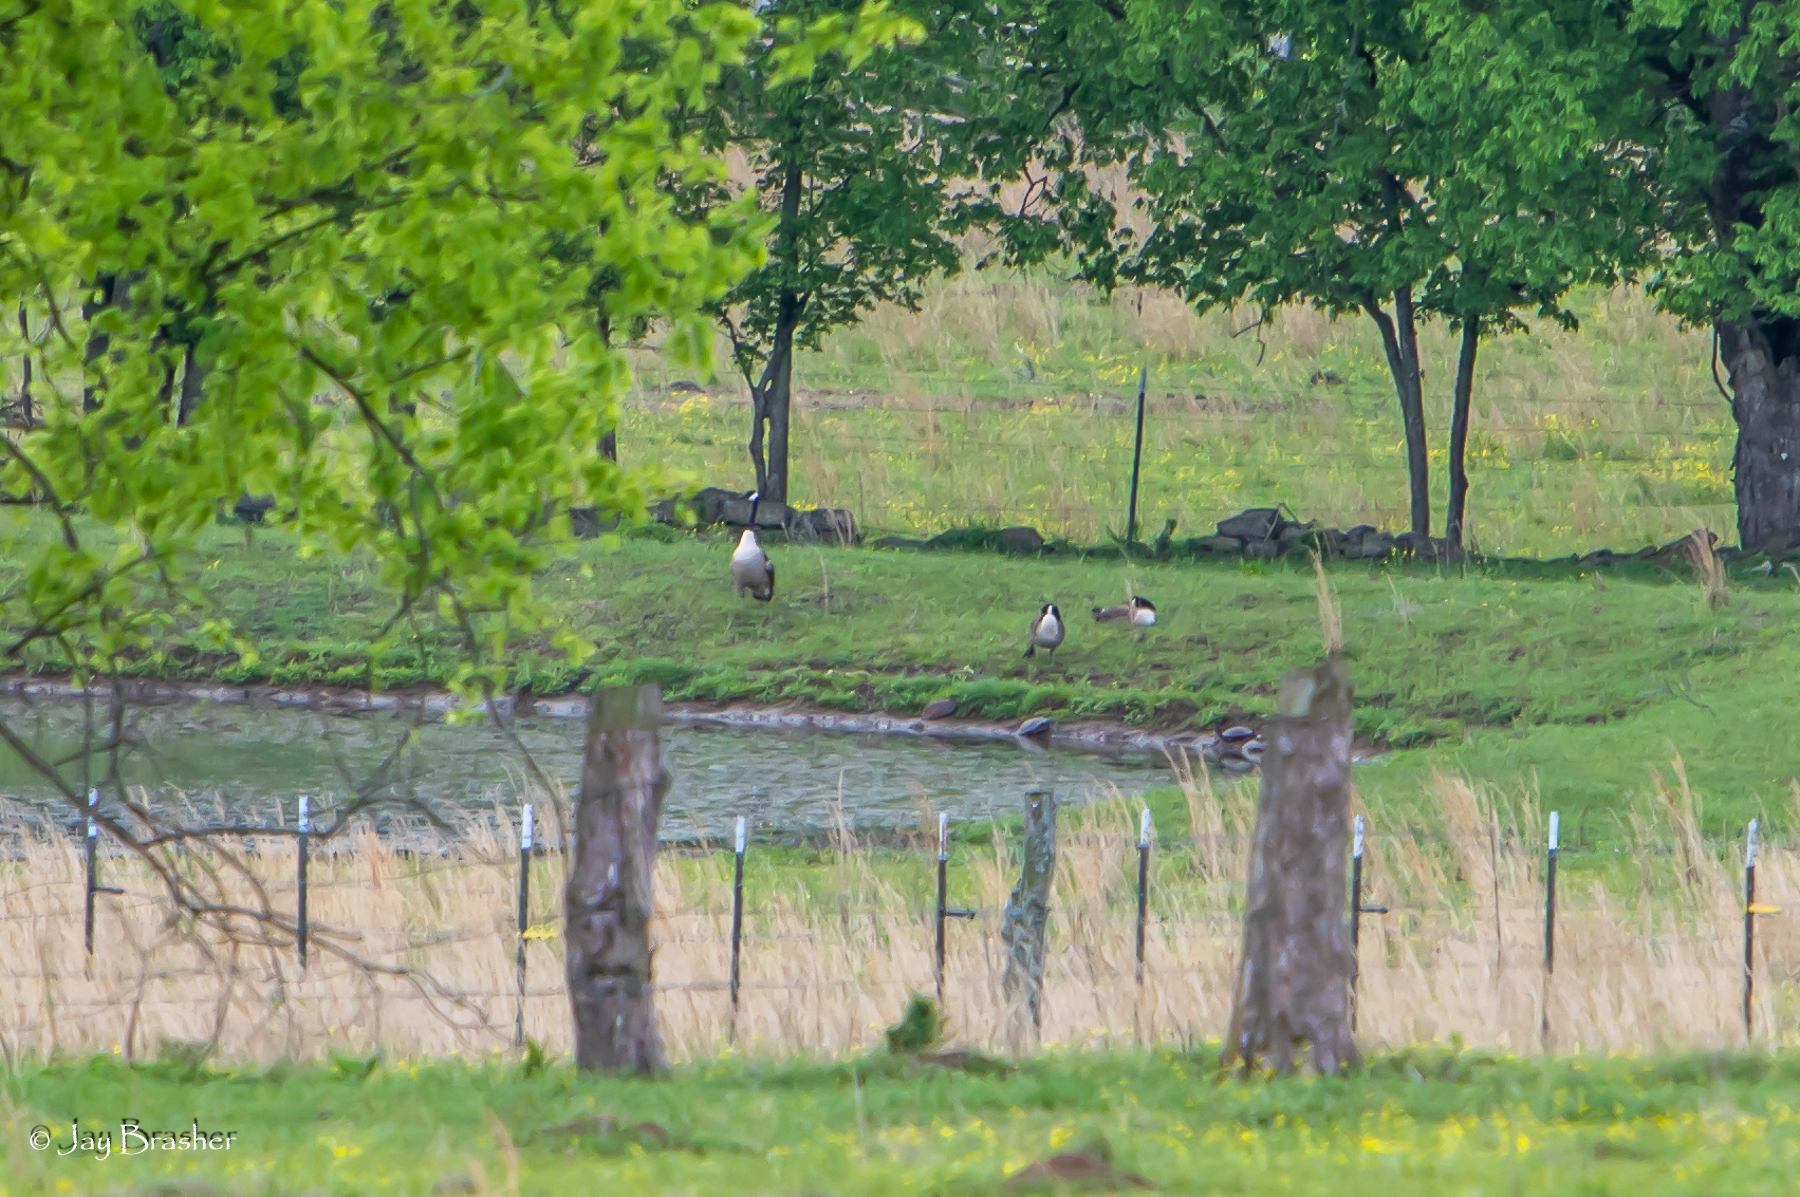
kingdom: Animalia
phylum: Chordata
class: Aves
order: Anseriformes
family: Anatidae
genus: Branta
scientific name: Branta canadensis
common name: Canada goose
